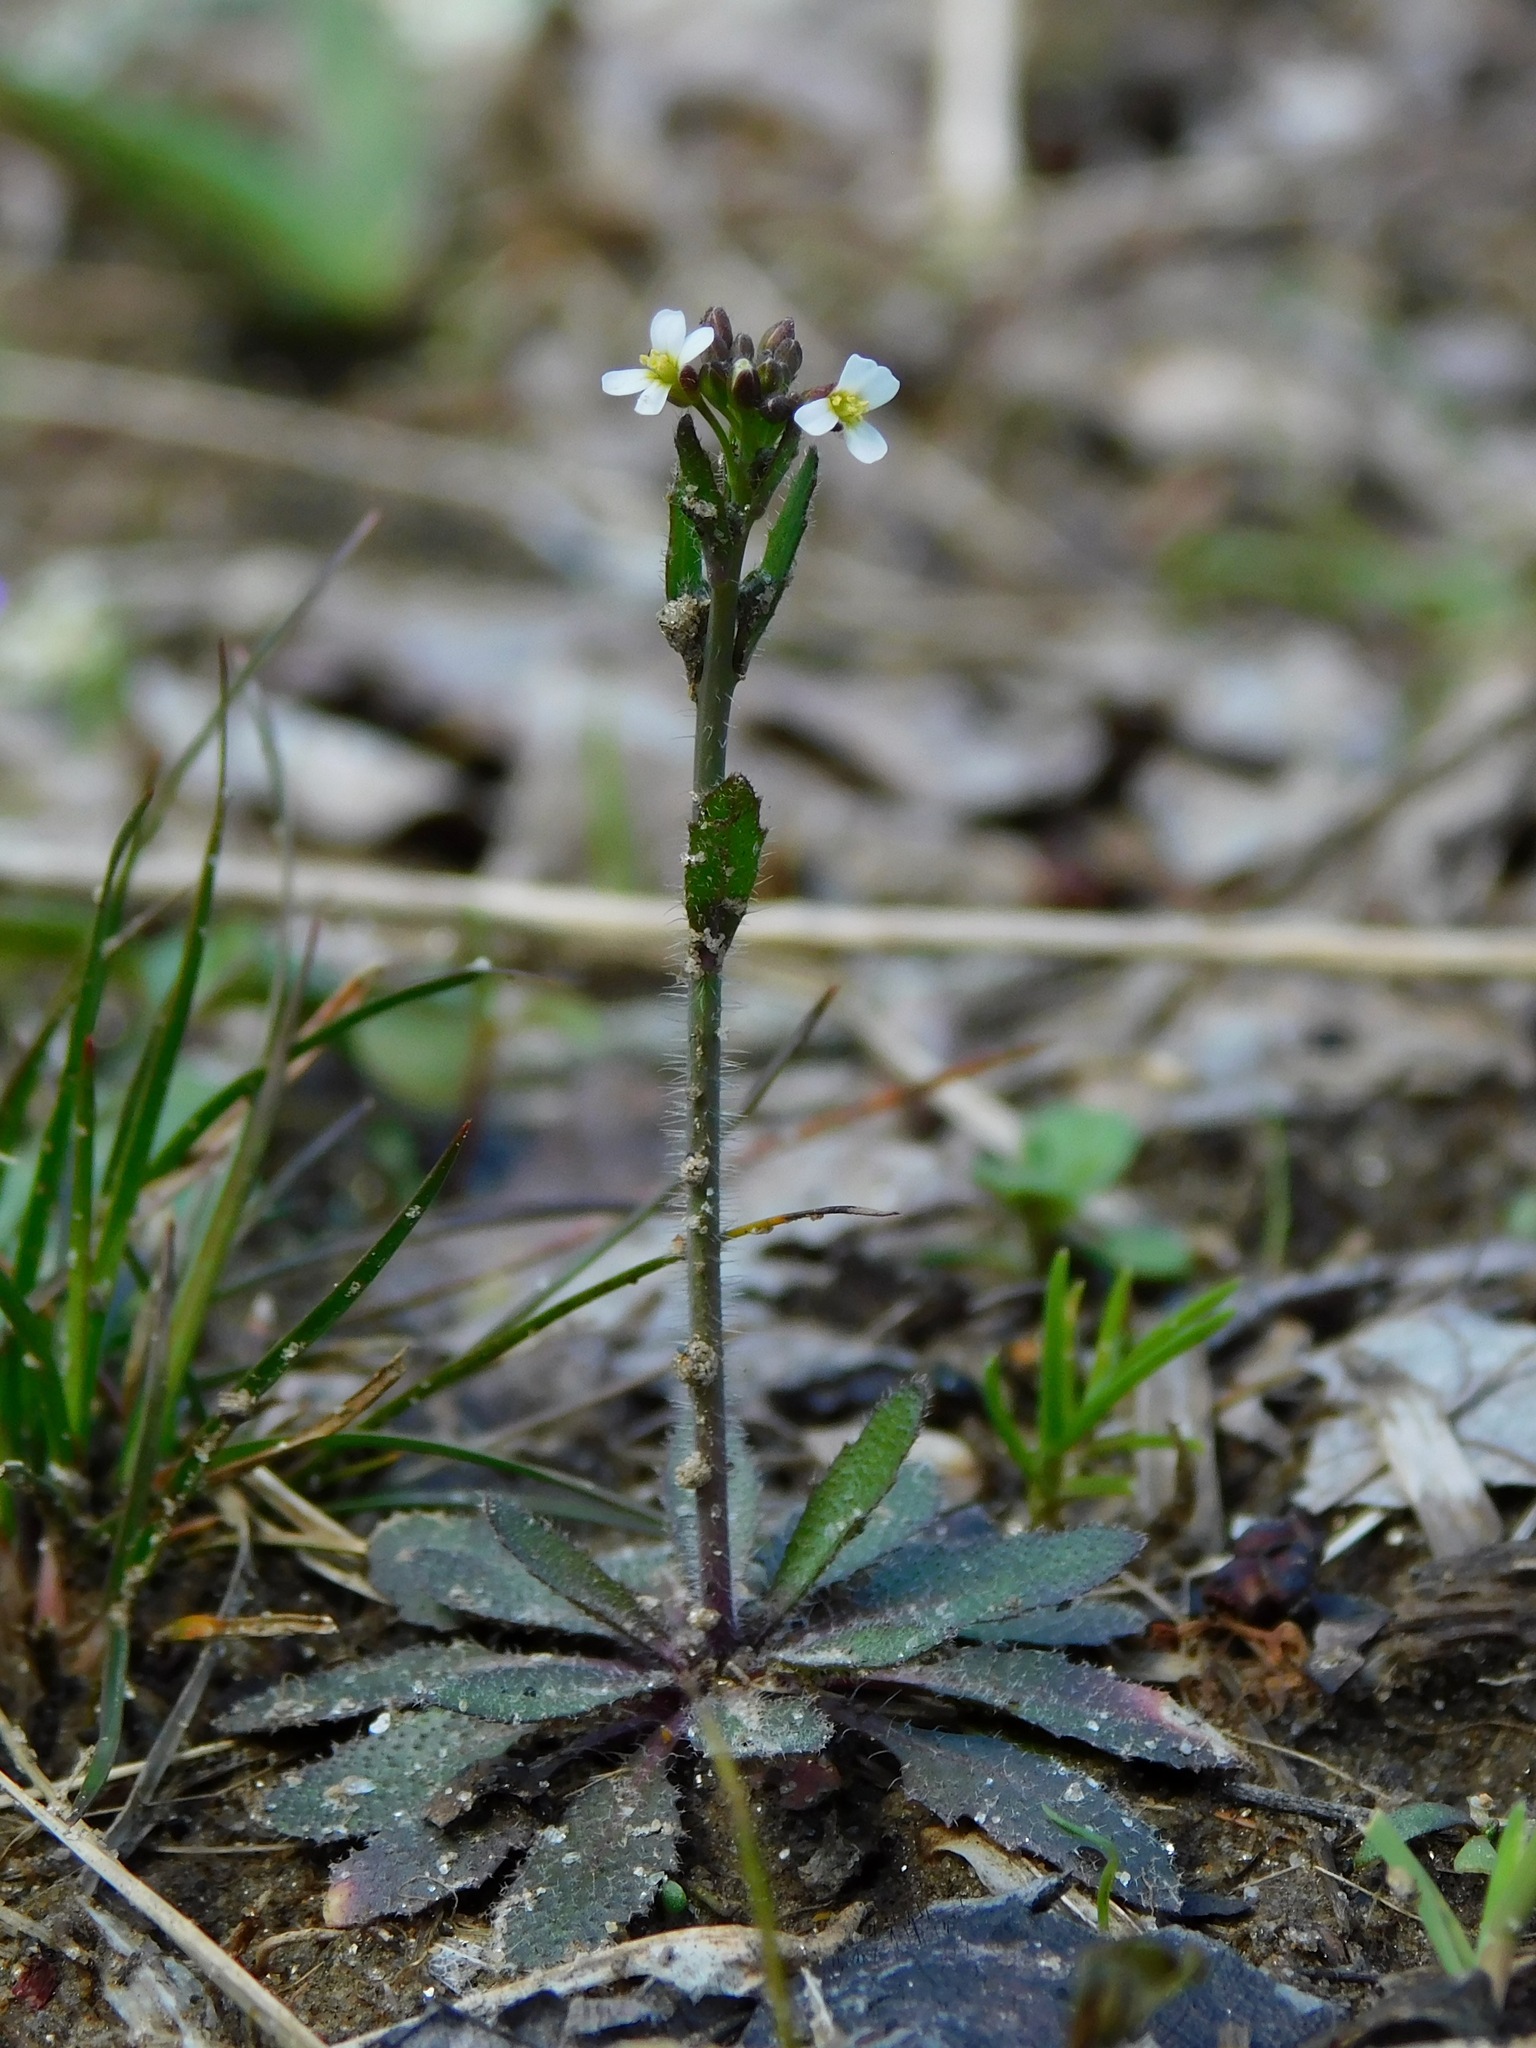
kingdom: Plantae
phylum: Tracheophyta
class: Magnoliopsida
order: Brassicales
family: Brassicaceae
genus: Arabidopsis
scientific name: Arabidopsis thaliana
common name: Thale cress
